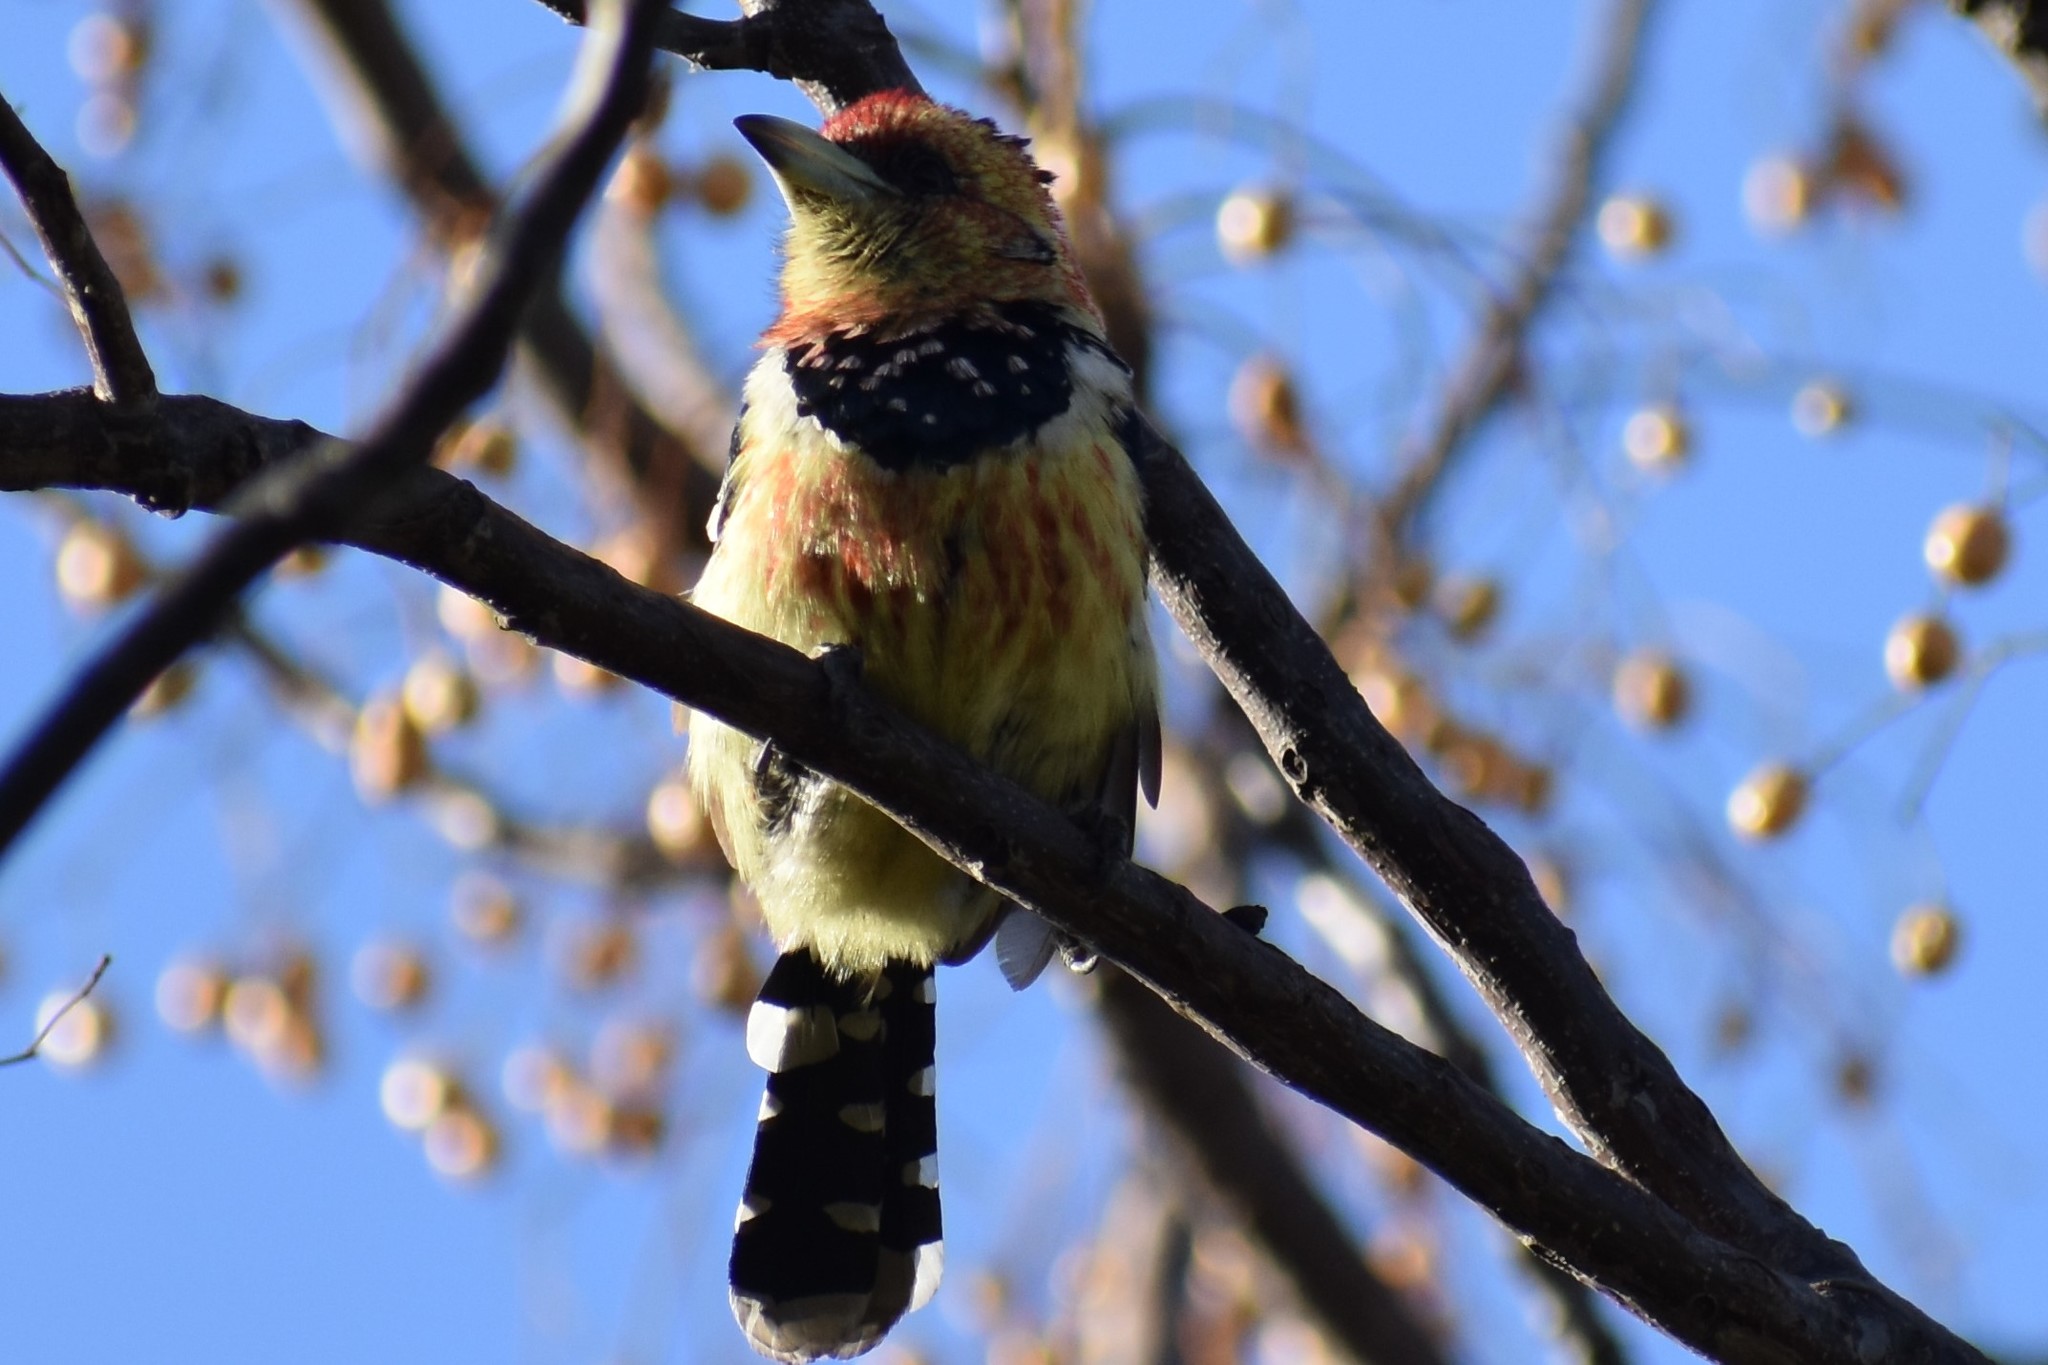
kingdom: Animalia
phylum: Chordata
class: Aves
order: Piciformes
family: Lybiidae
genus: Trachyphonus
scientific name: Trachyphonus vaillantii
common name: Crested barbet
